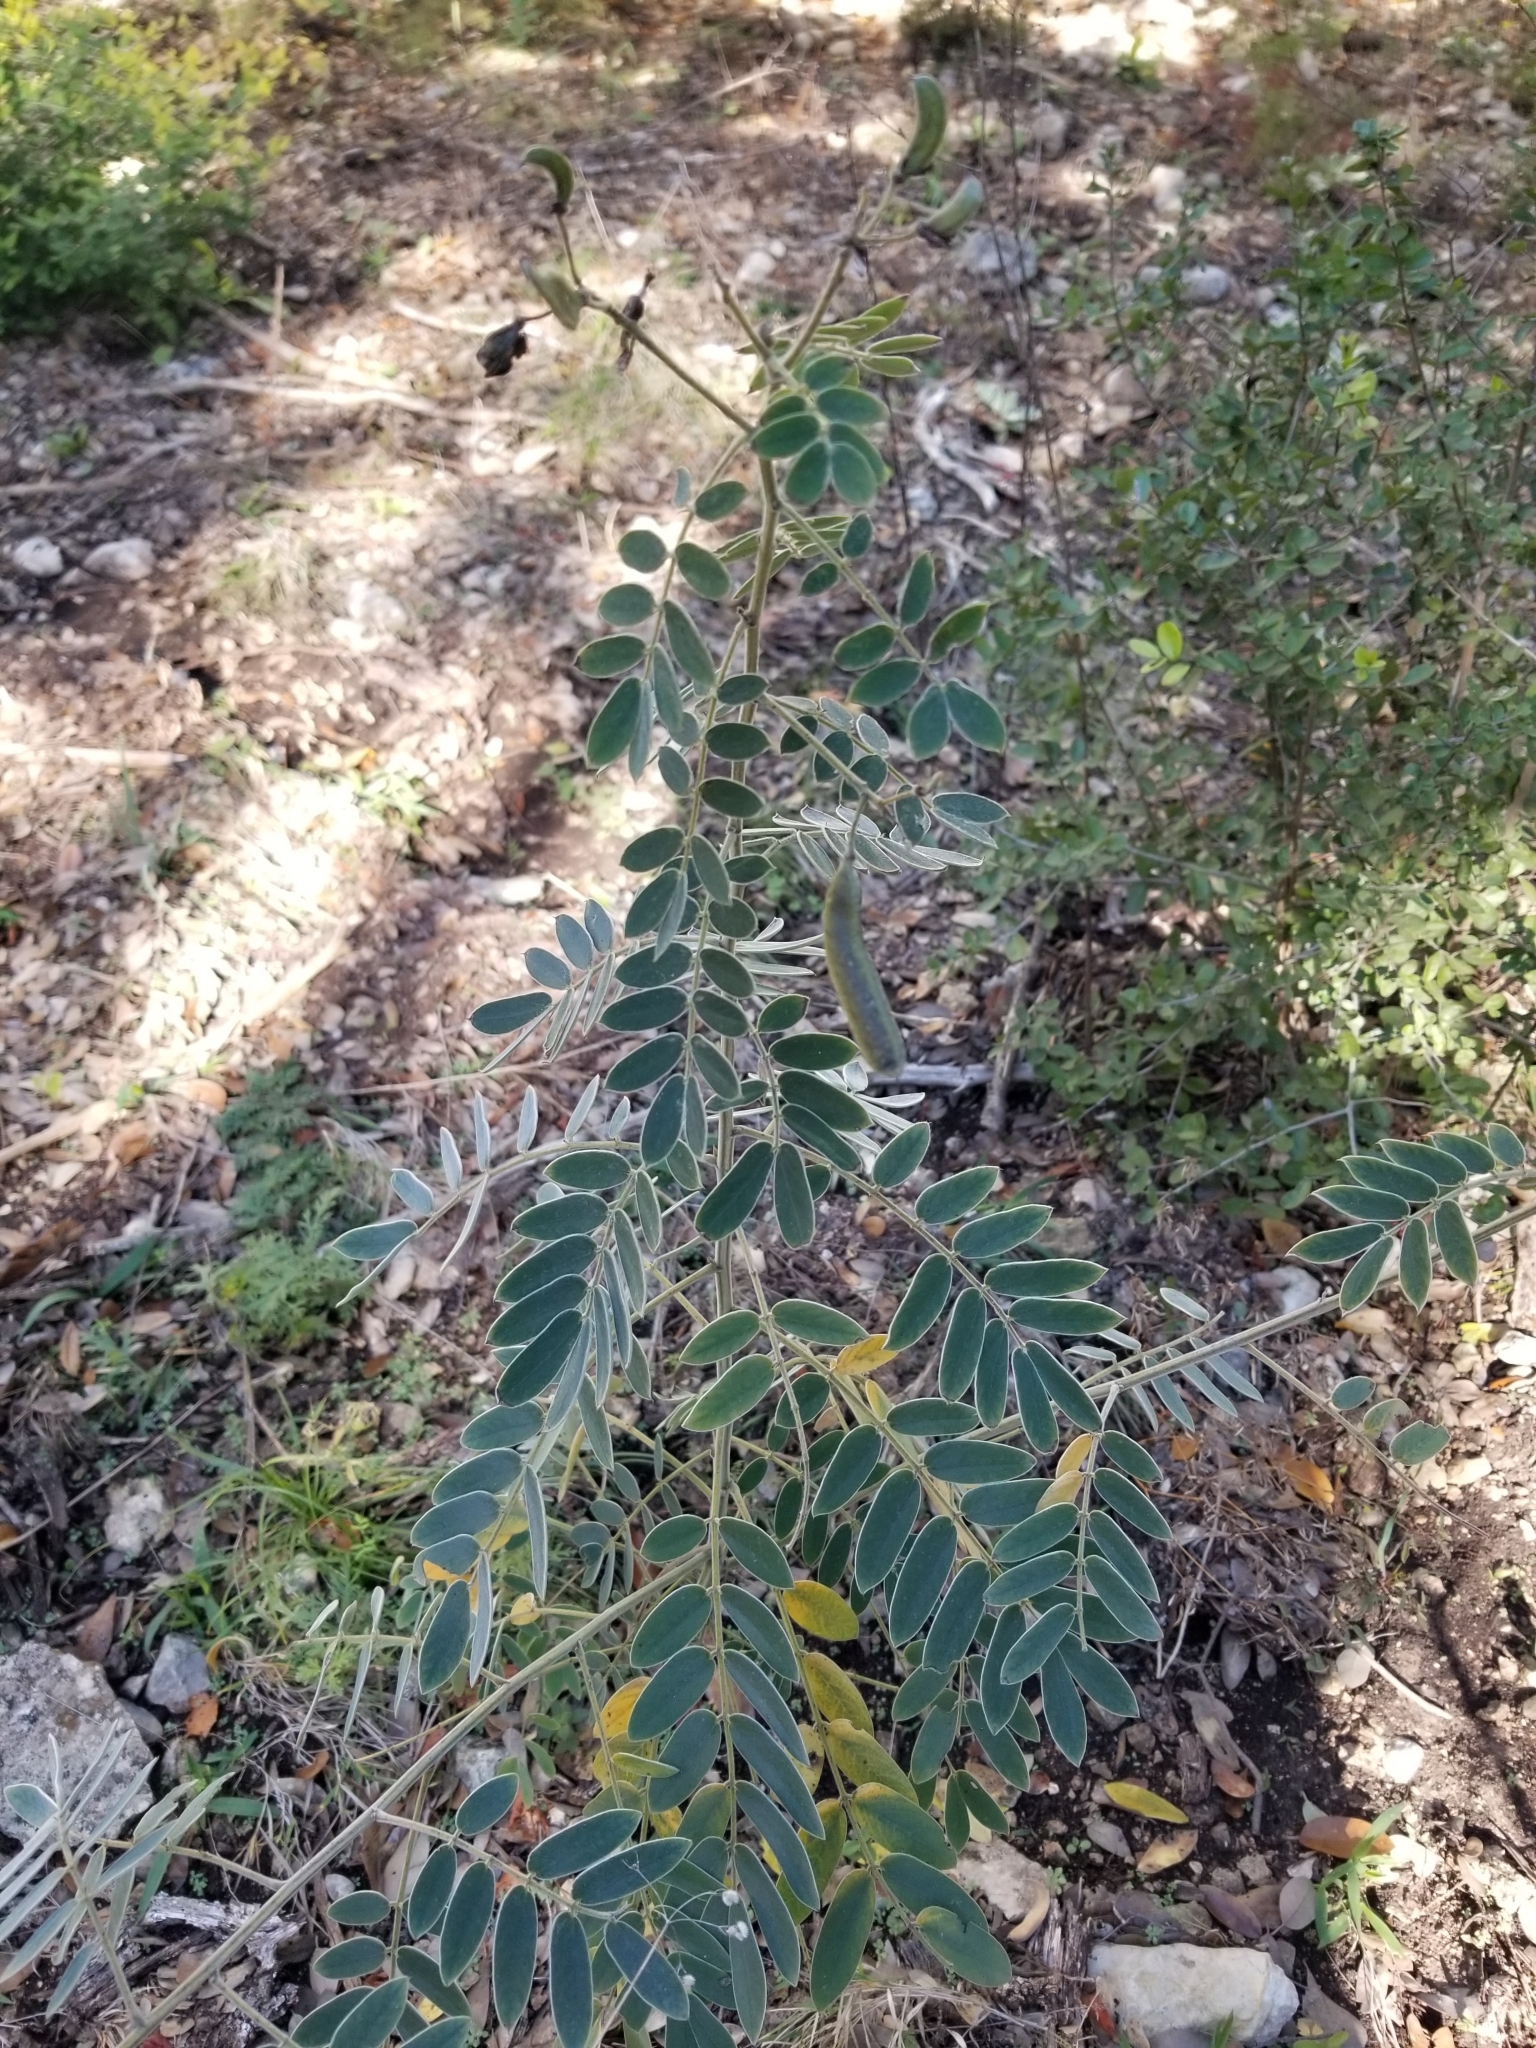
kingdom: Plantae
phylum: Tracheophyta
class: Magnoliopsida
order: Fabales
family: Fabaceae
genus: Senna
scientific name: Senna lindheimeriana
